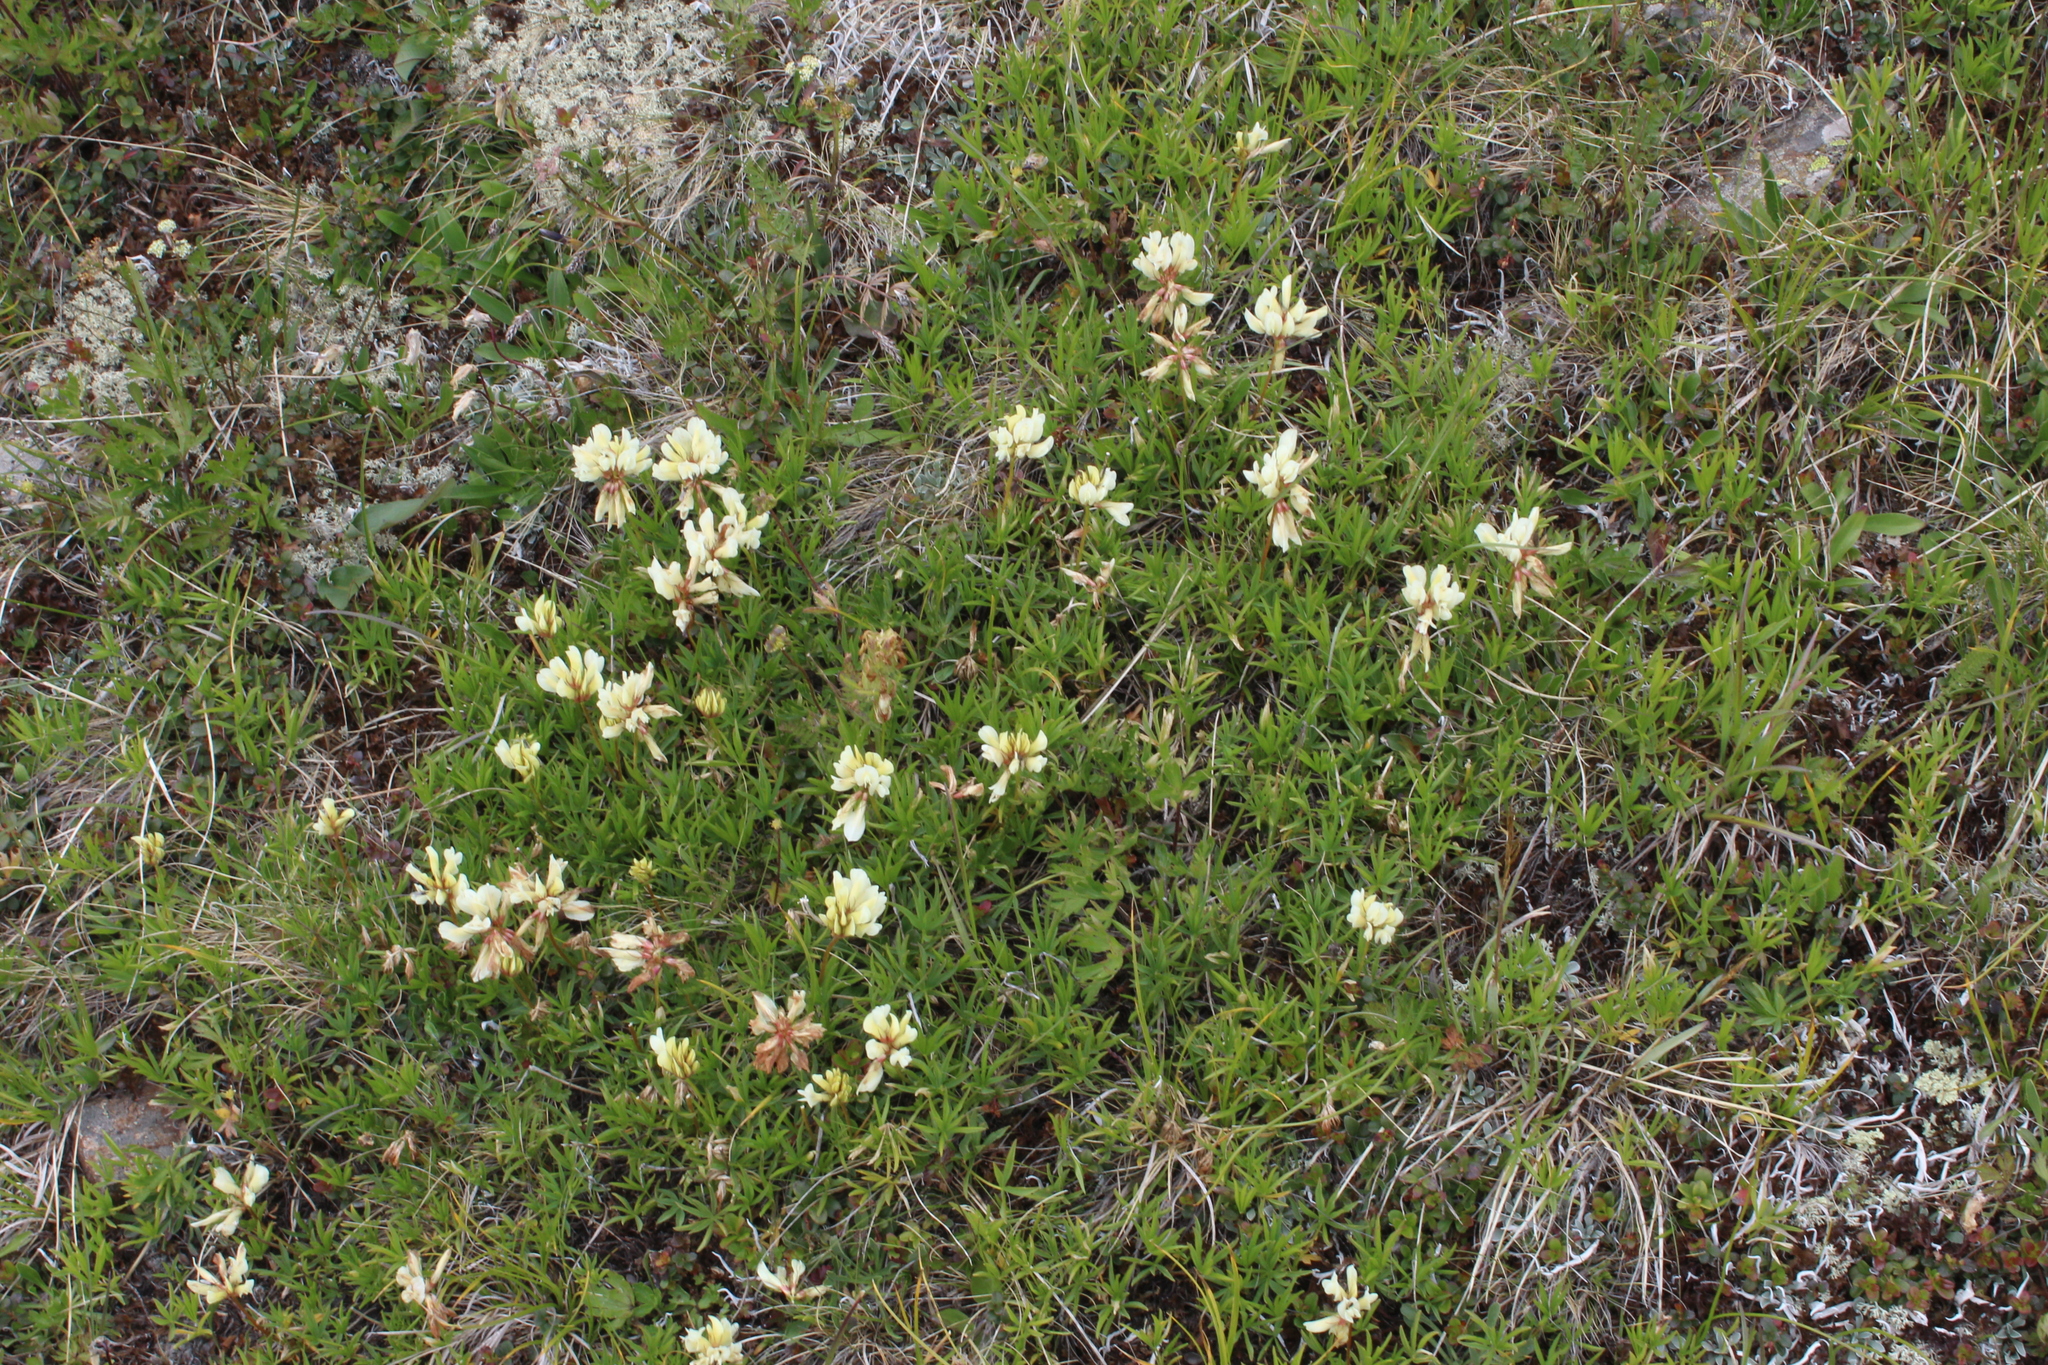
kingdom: Plantae
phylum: Tracheophyta
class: Magnoliopsida
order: Fabales
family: Fabaceae
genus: Trifolium
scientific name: Trifolium polyphyllum
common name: Many-leaf clover
